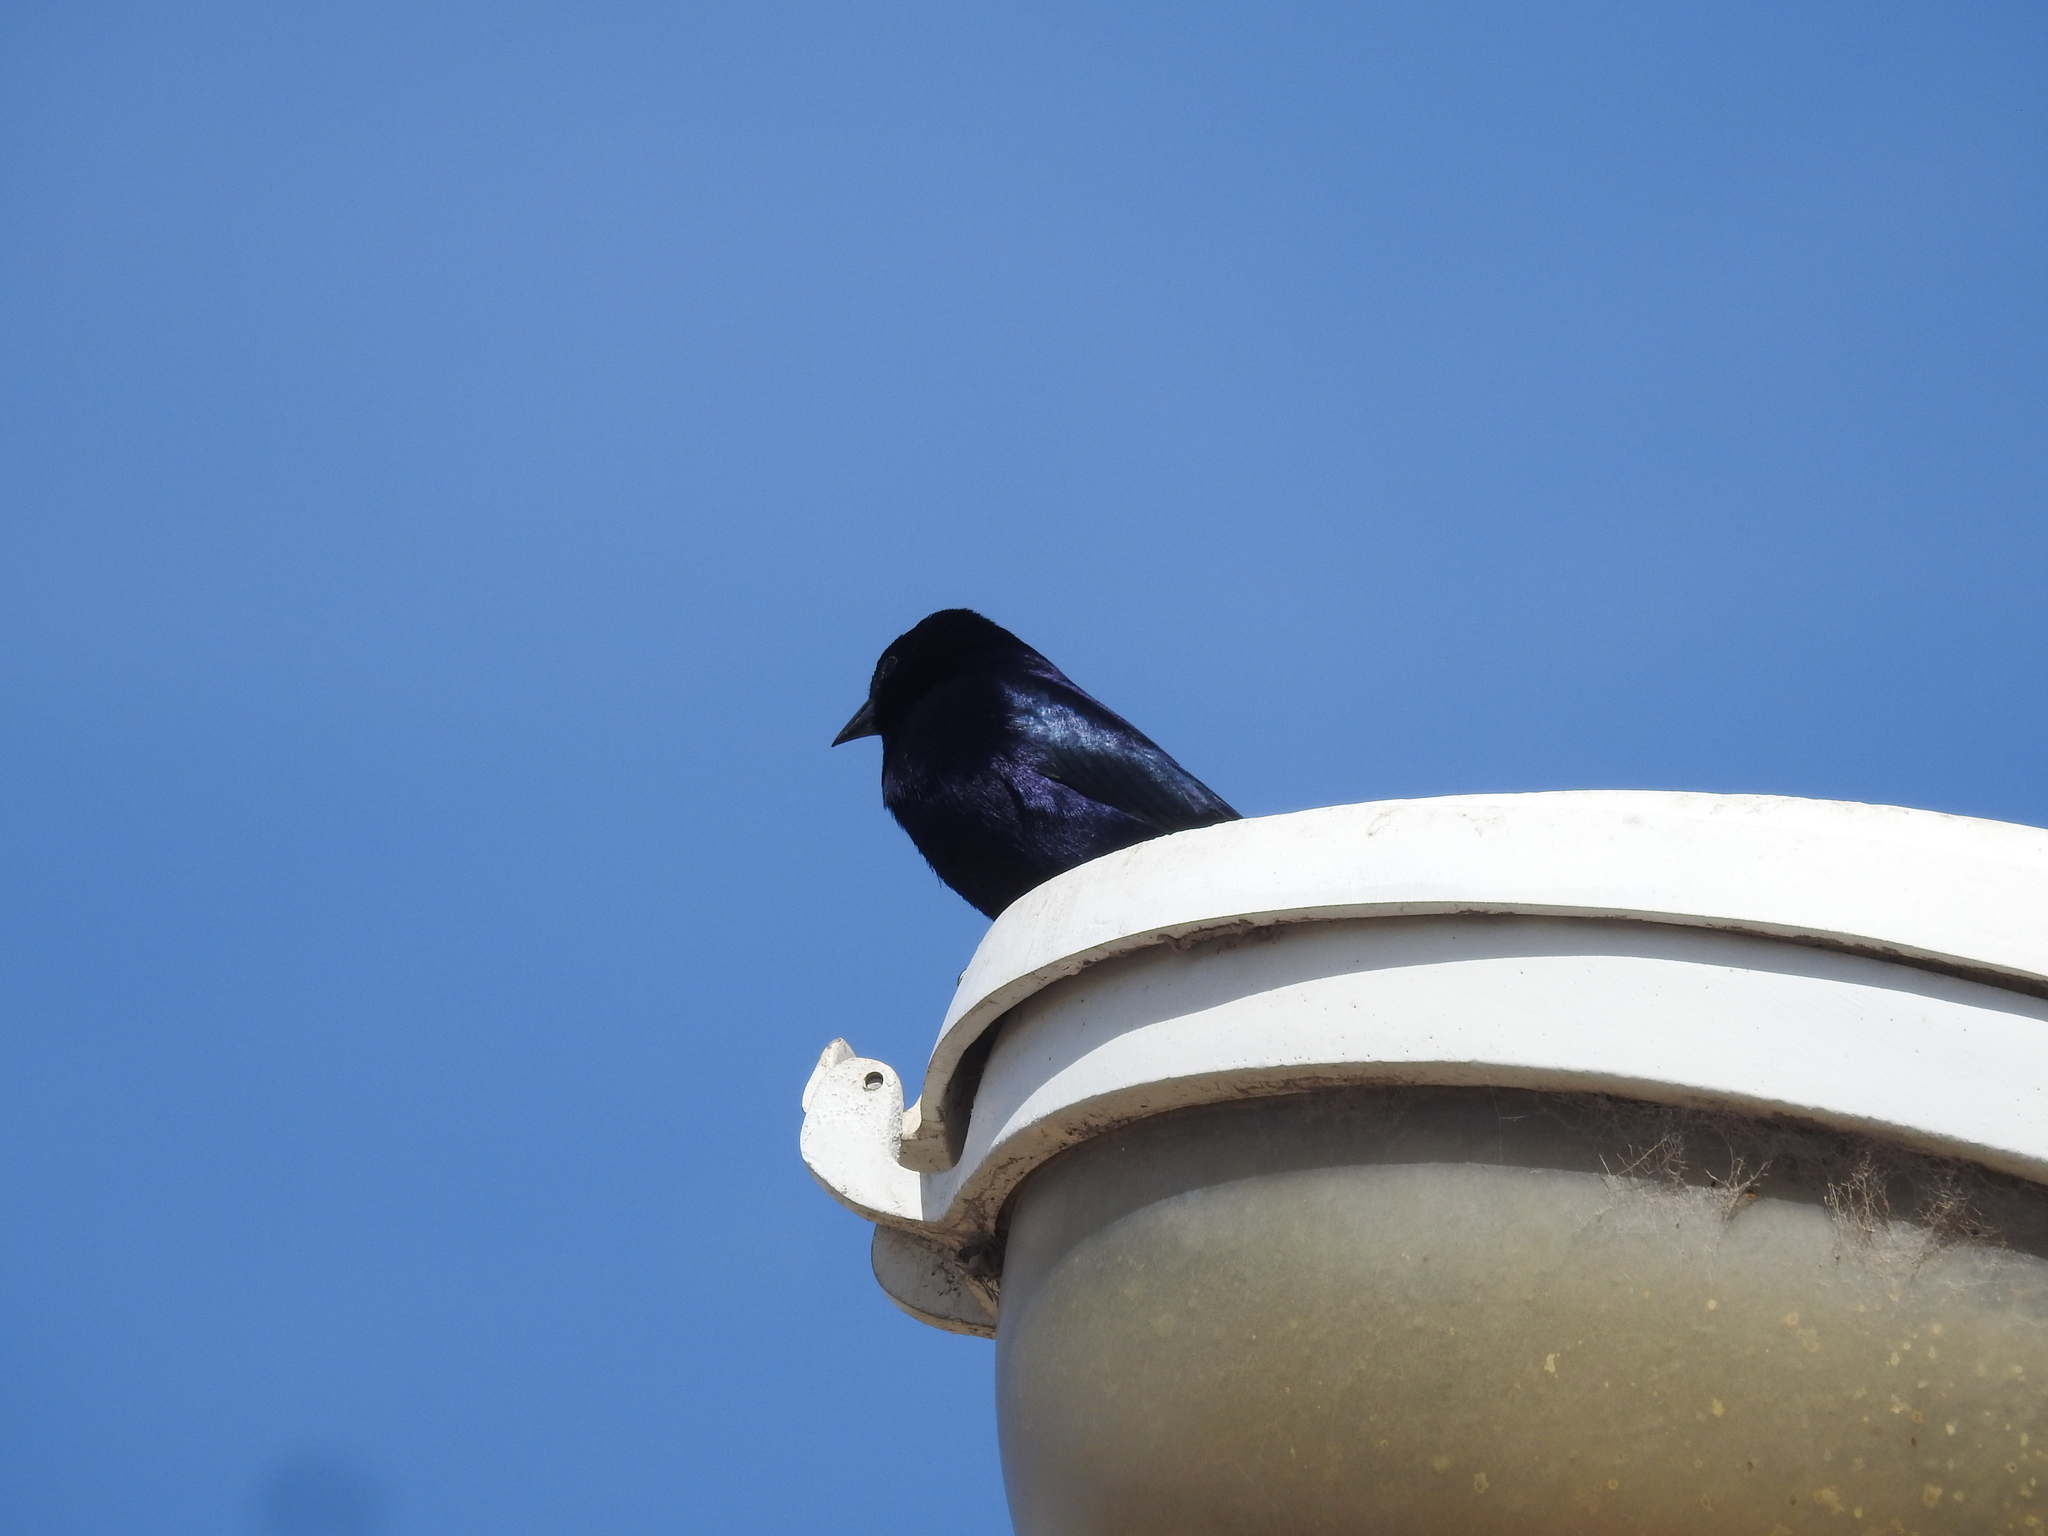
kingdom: Animalia
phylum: Chordata
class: Aves
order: Passeriformes
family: Icteridae
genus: Molothrus
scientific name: Molothrus bonariensis
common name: Shiny cowbird
